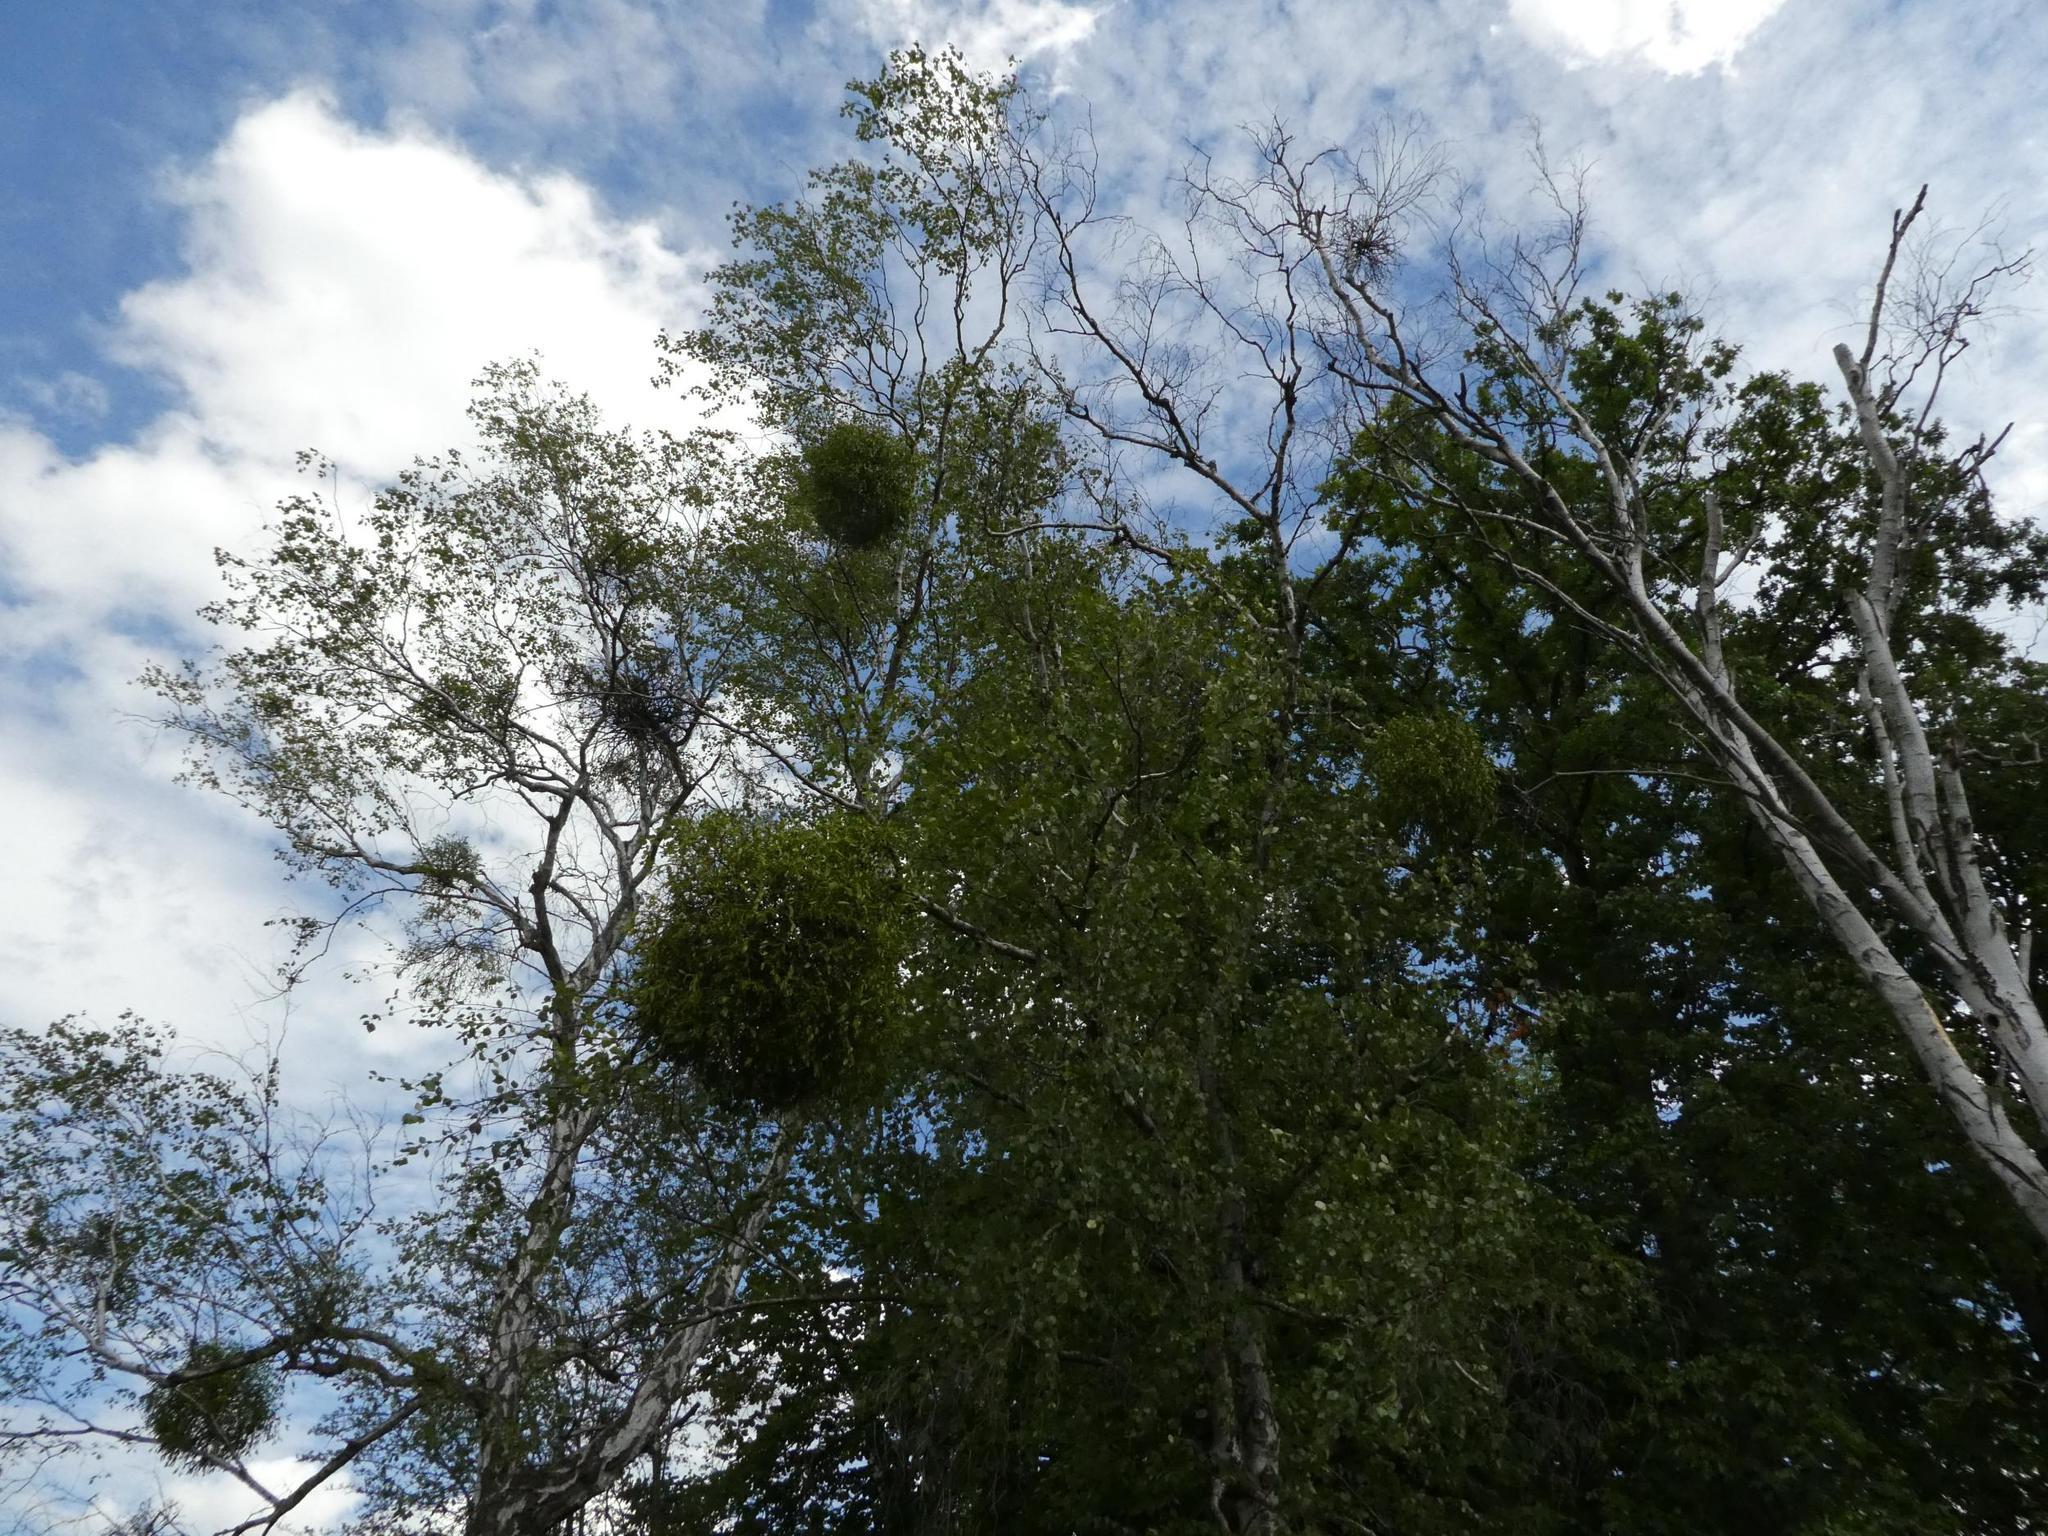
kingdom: Plantae
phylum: Tracheophyta
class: Magnoliopsida
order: Santalales
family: Viscaceae
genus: Viscum
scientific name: Viscum album
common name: Mistletoe
